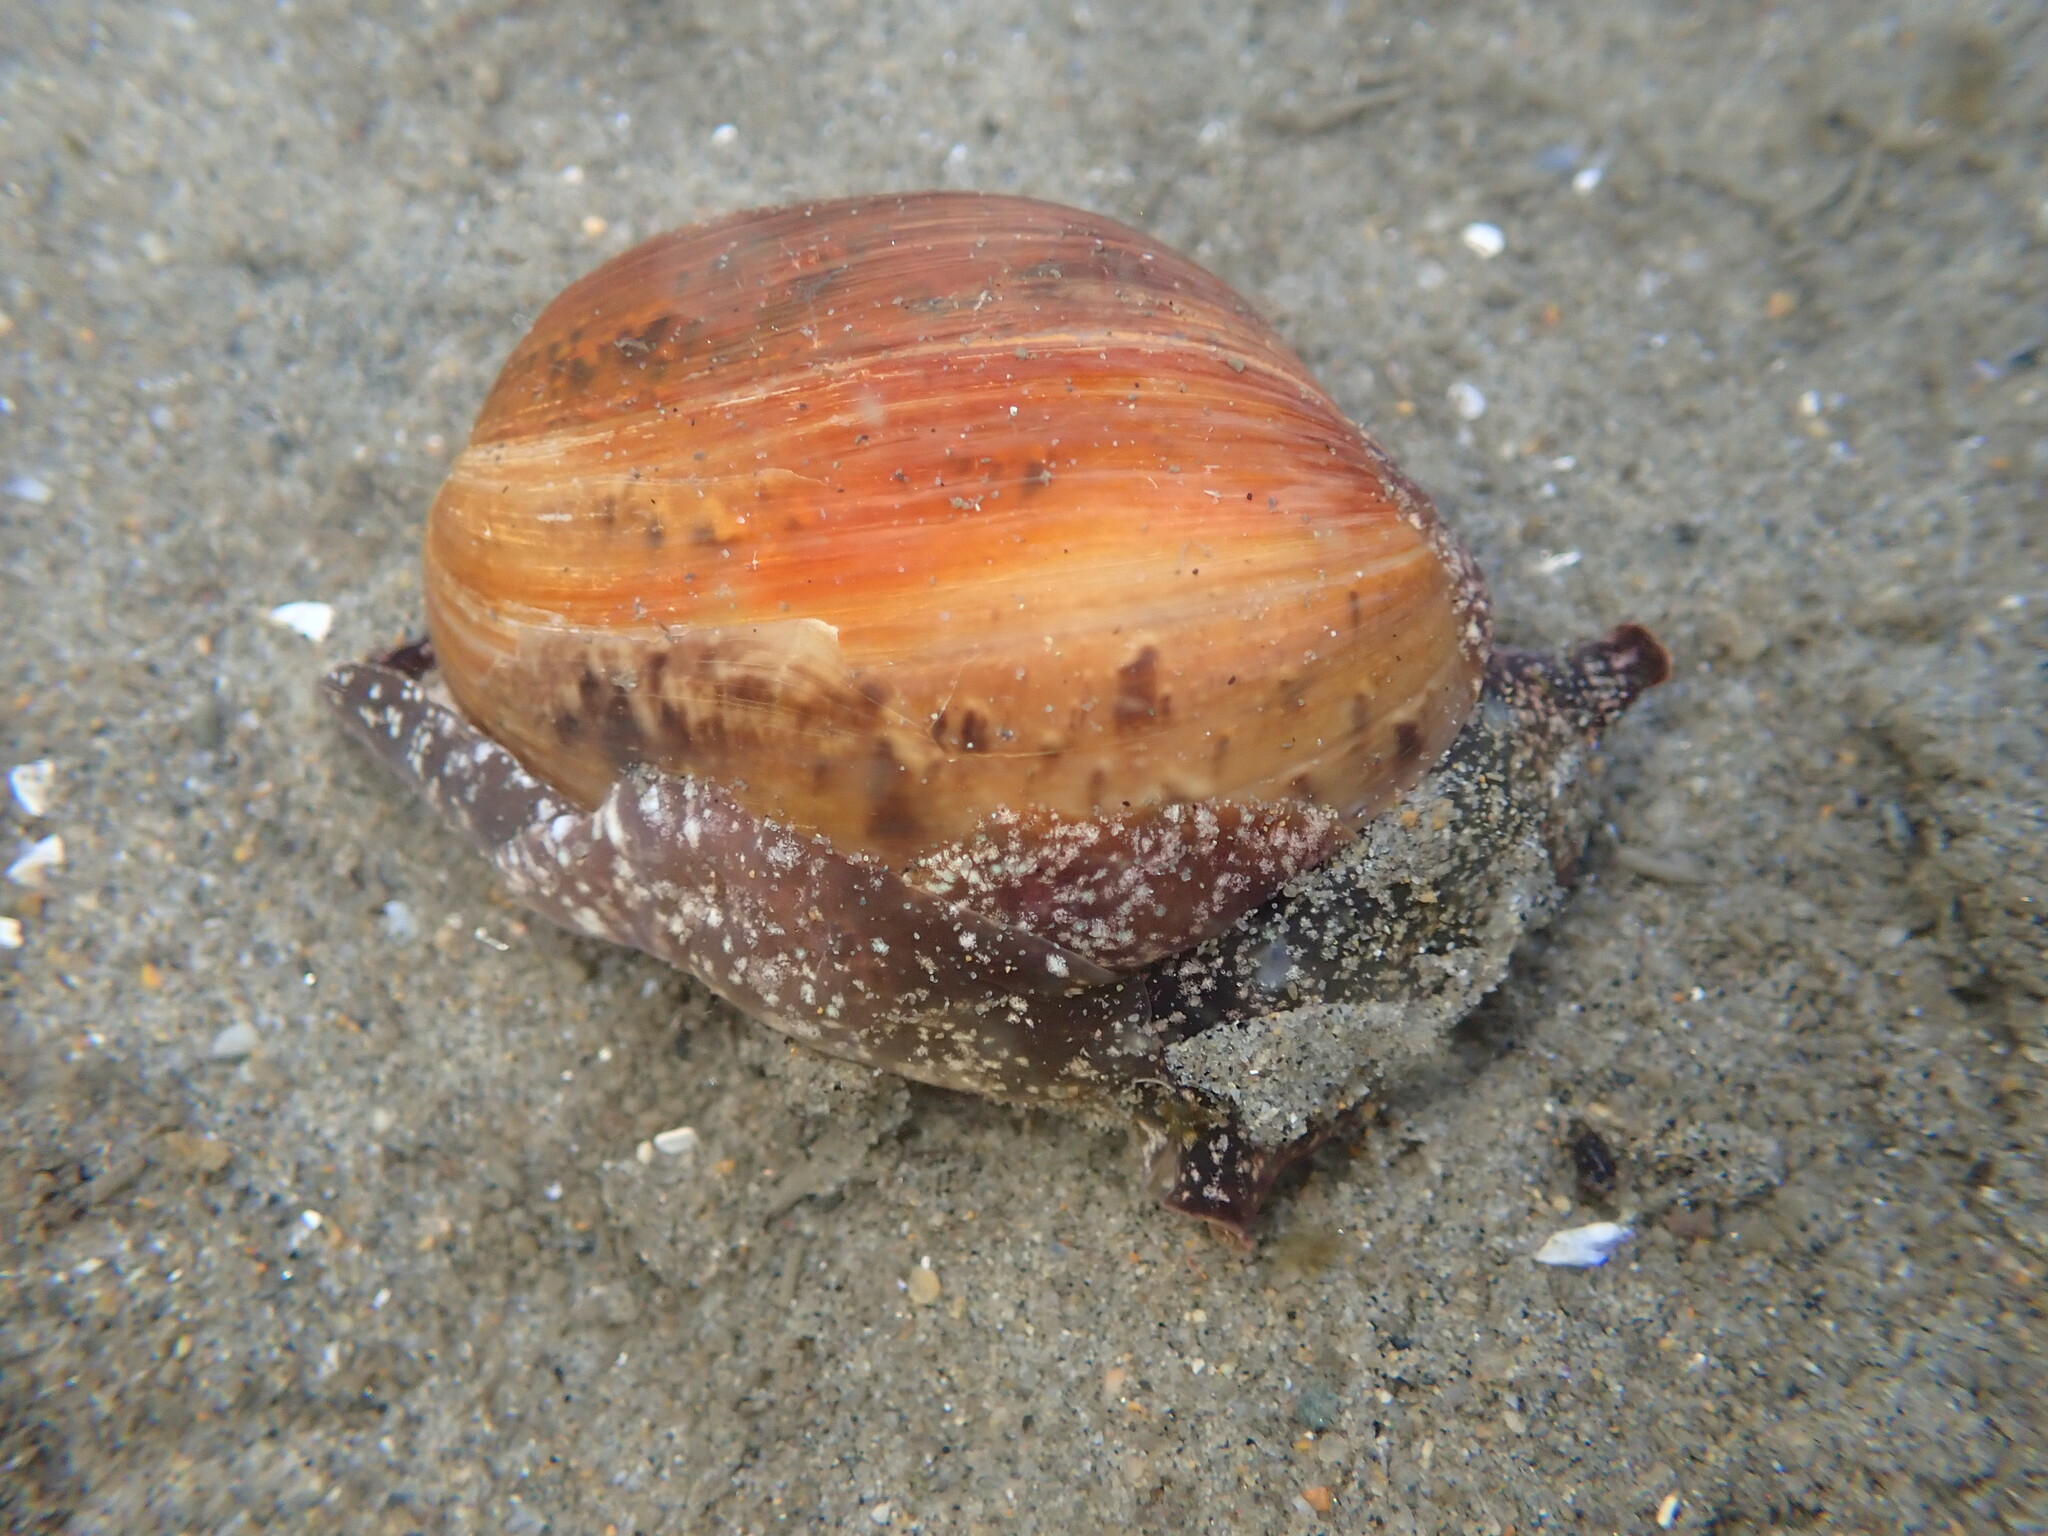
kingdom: Animalia
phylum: Mollusca
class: Gastropoda
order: Cephalaspidea
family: Bullidae
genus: Bulla
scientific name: Bulla gouldiana
